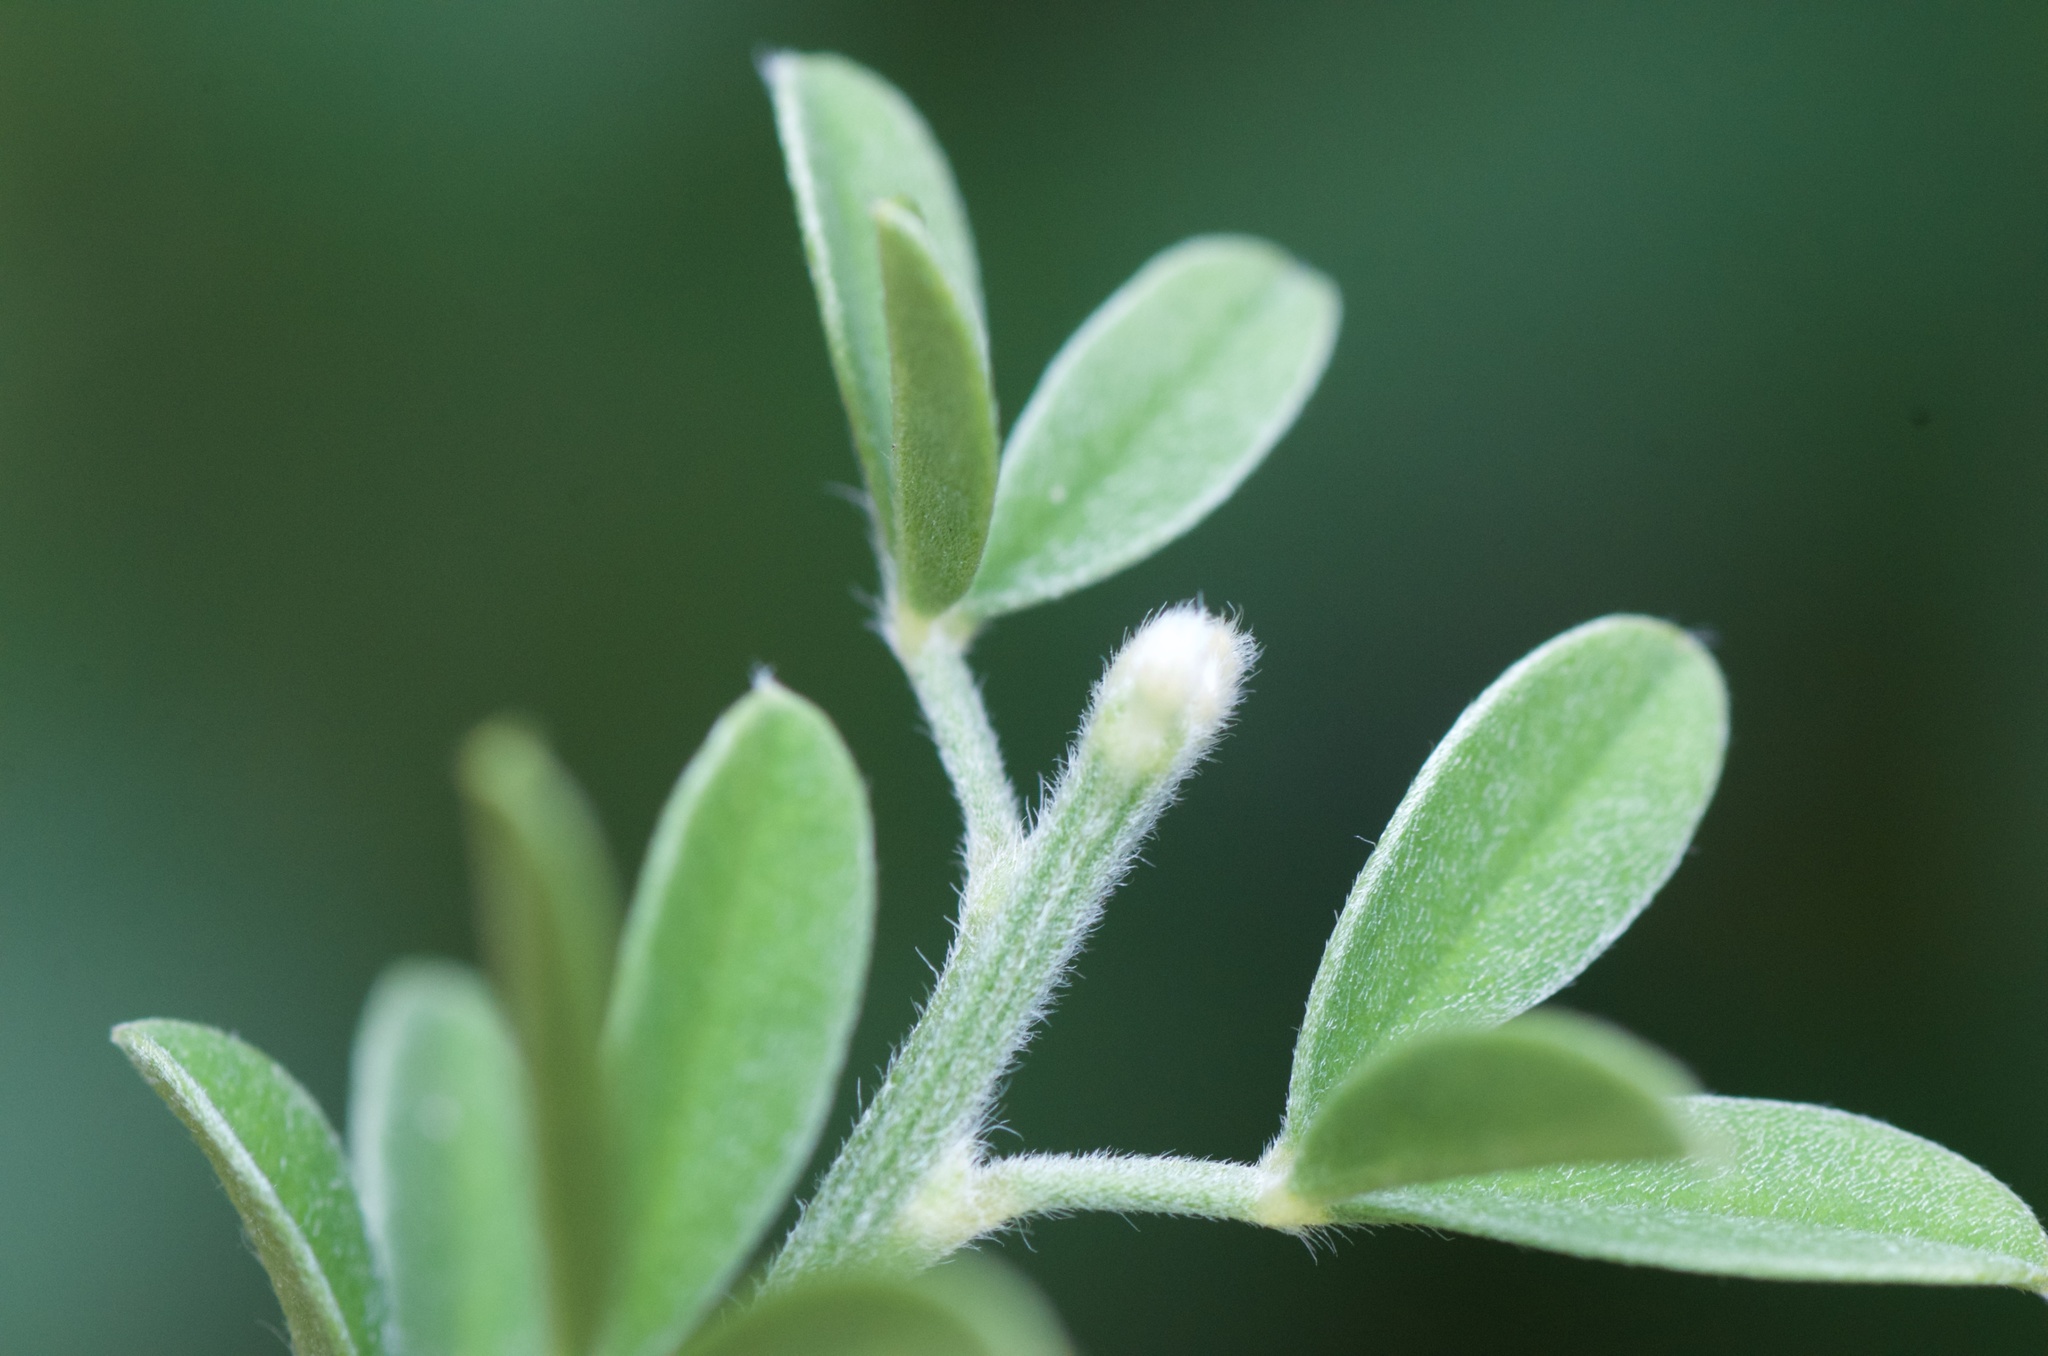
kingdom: Plantae
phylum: Tracheophyta
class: Magnoliopsida
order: Fabales
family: Fabaceae
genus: Genista
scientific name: Genista monspessulana
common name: Montpellier broom
